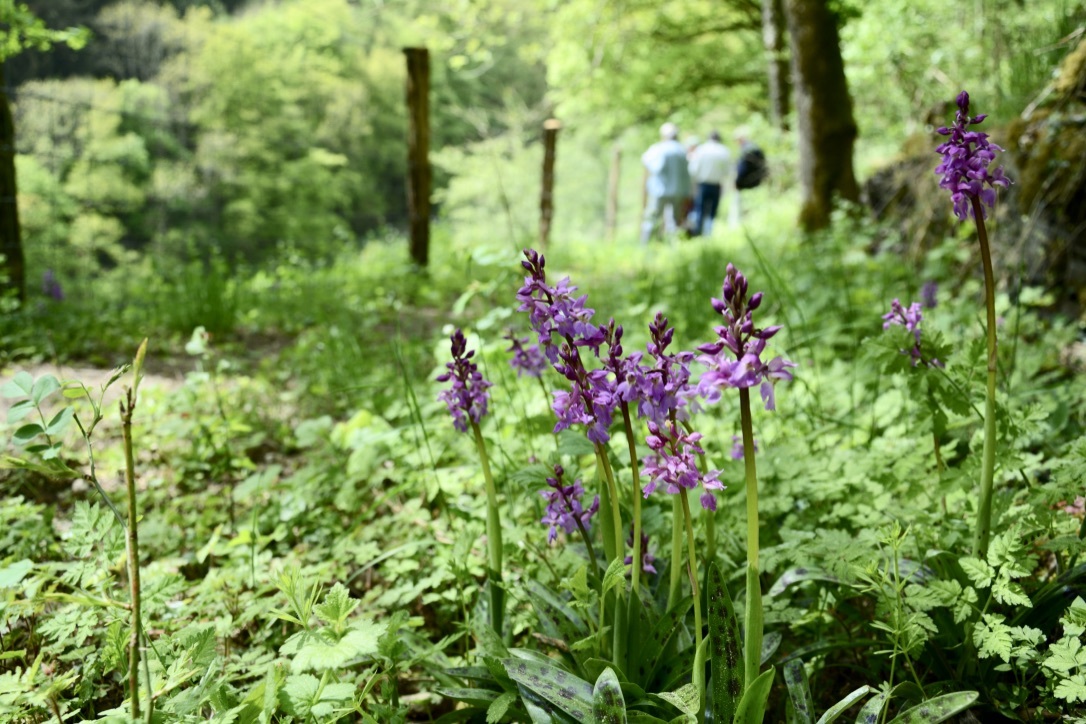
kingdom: Plantae
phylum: Tracheophyta
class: Liliopsida
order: Asparagales
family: Orchidaceae
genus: Orchis
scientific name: Orchis mascula
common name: Early-purple orchid
